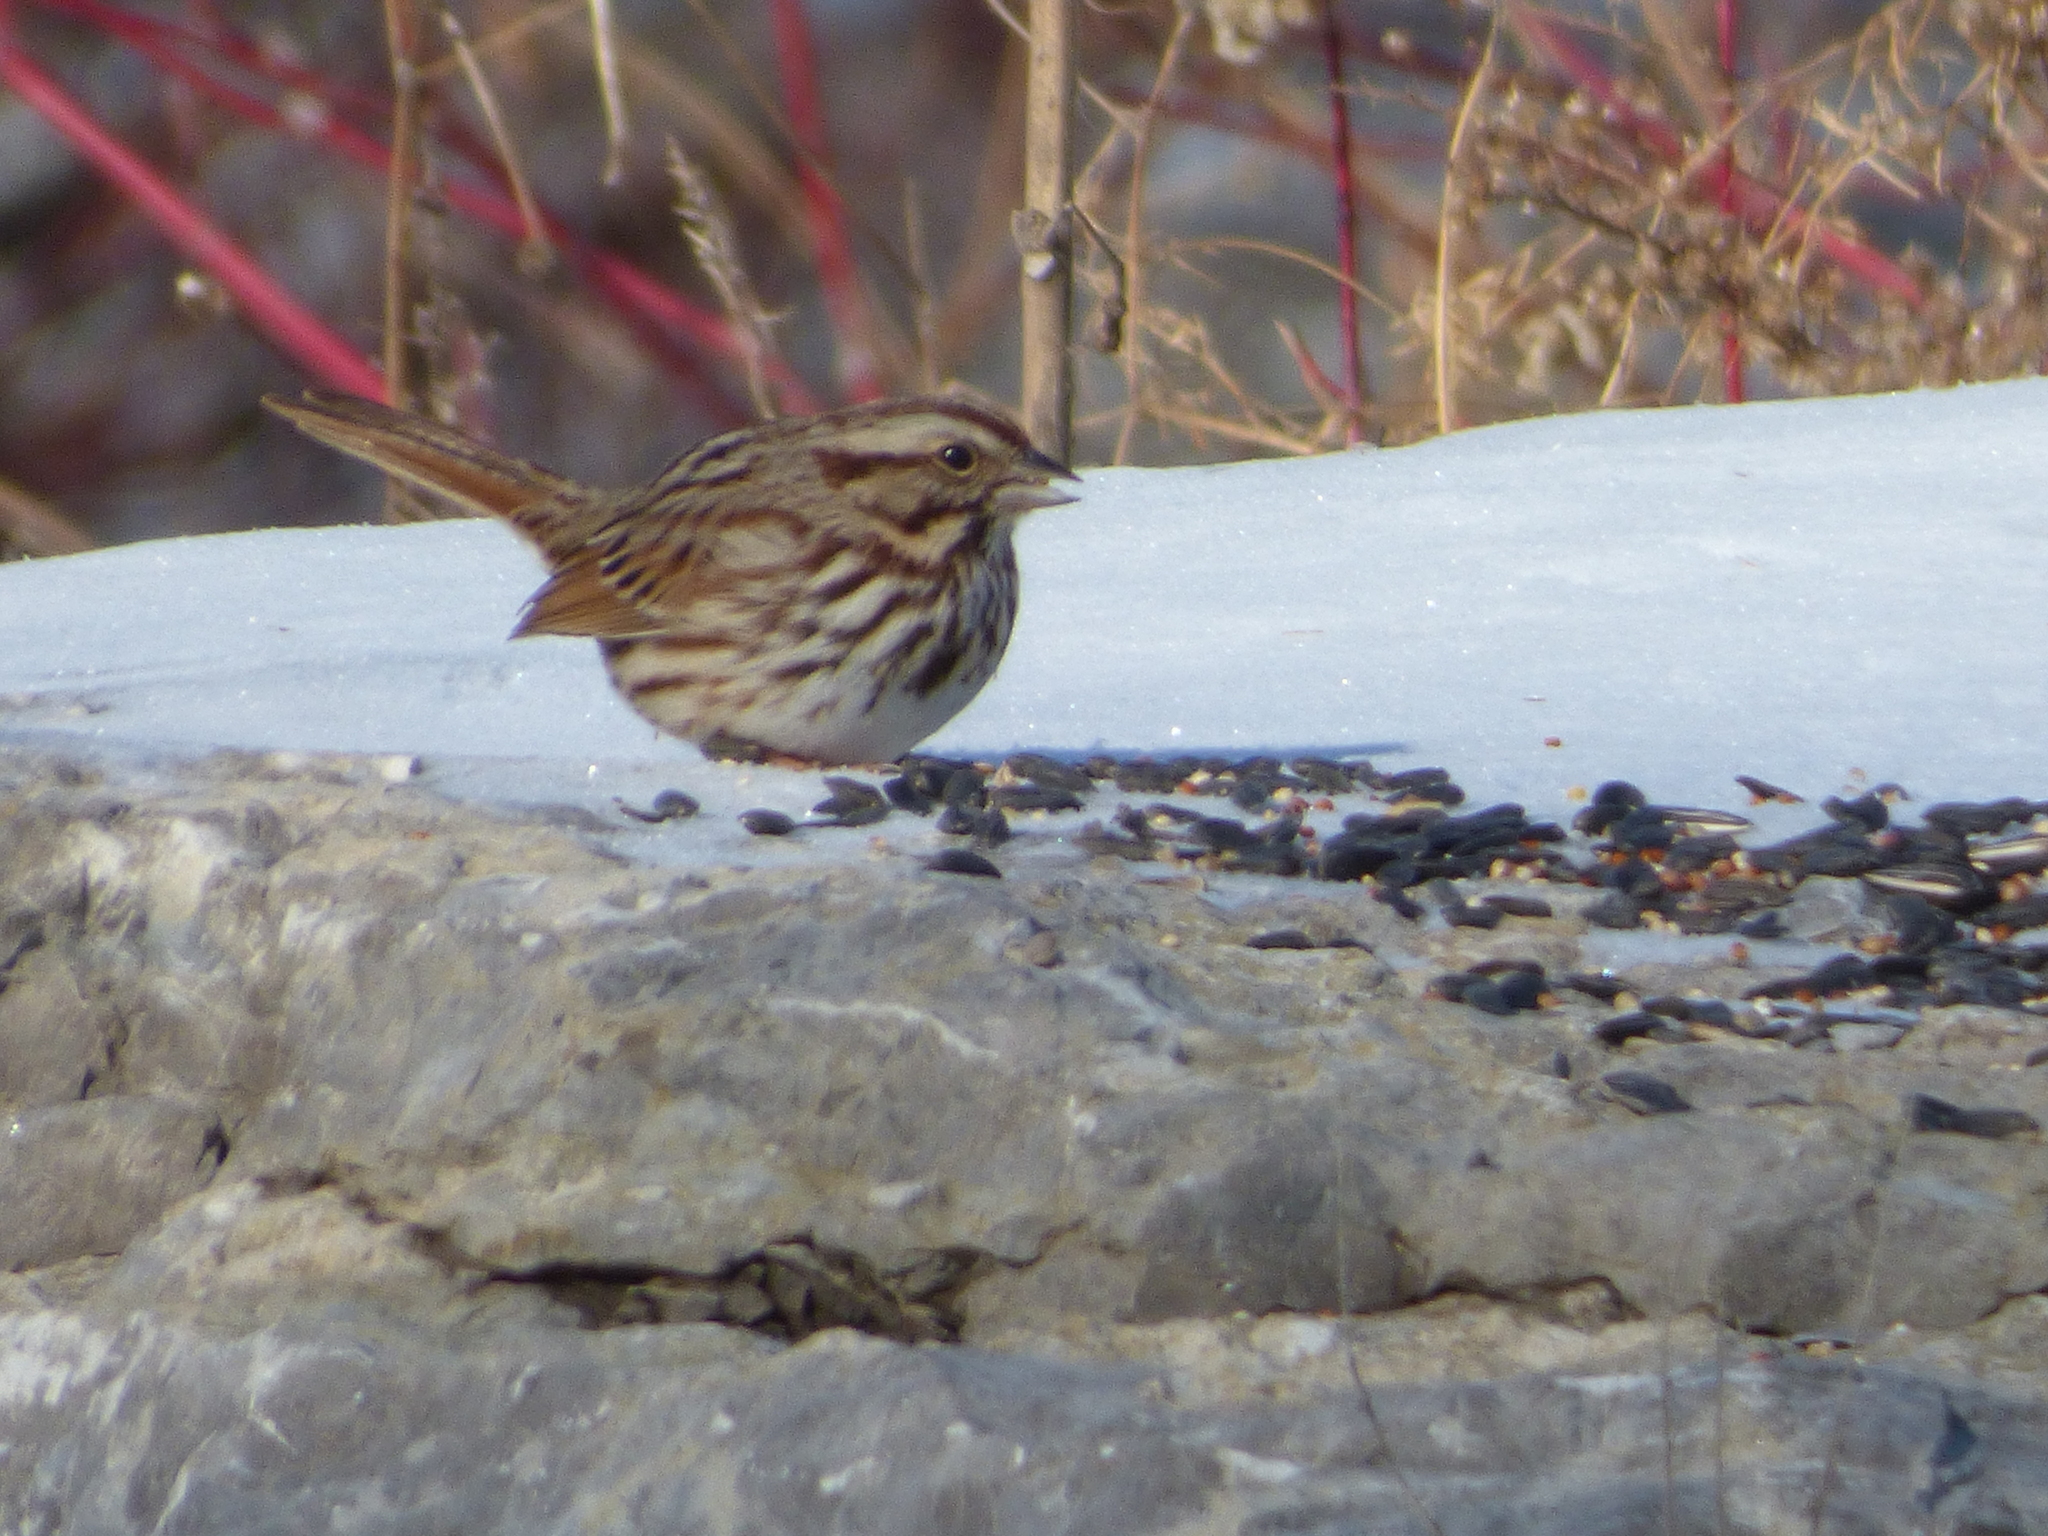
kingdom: Animalia
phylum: Chordata
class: Aves
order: Passeriformes
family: Passerellidae
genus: Melospiza
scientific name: Melospiza melodia
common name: Song sparrow
